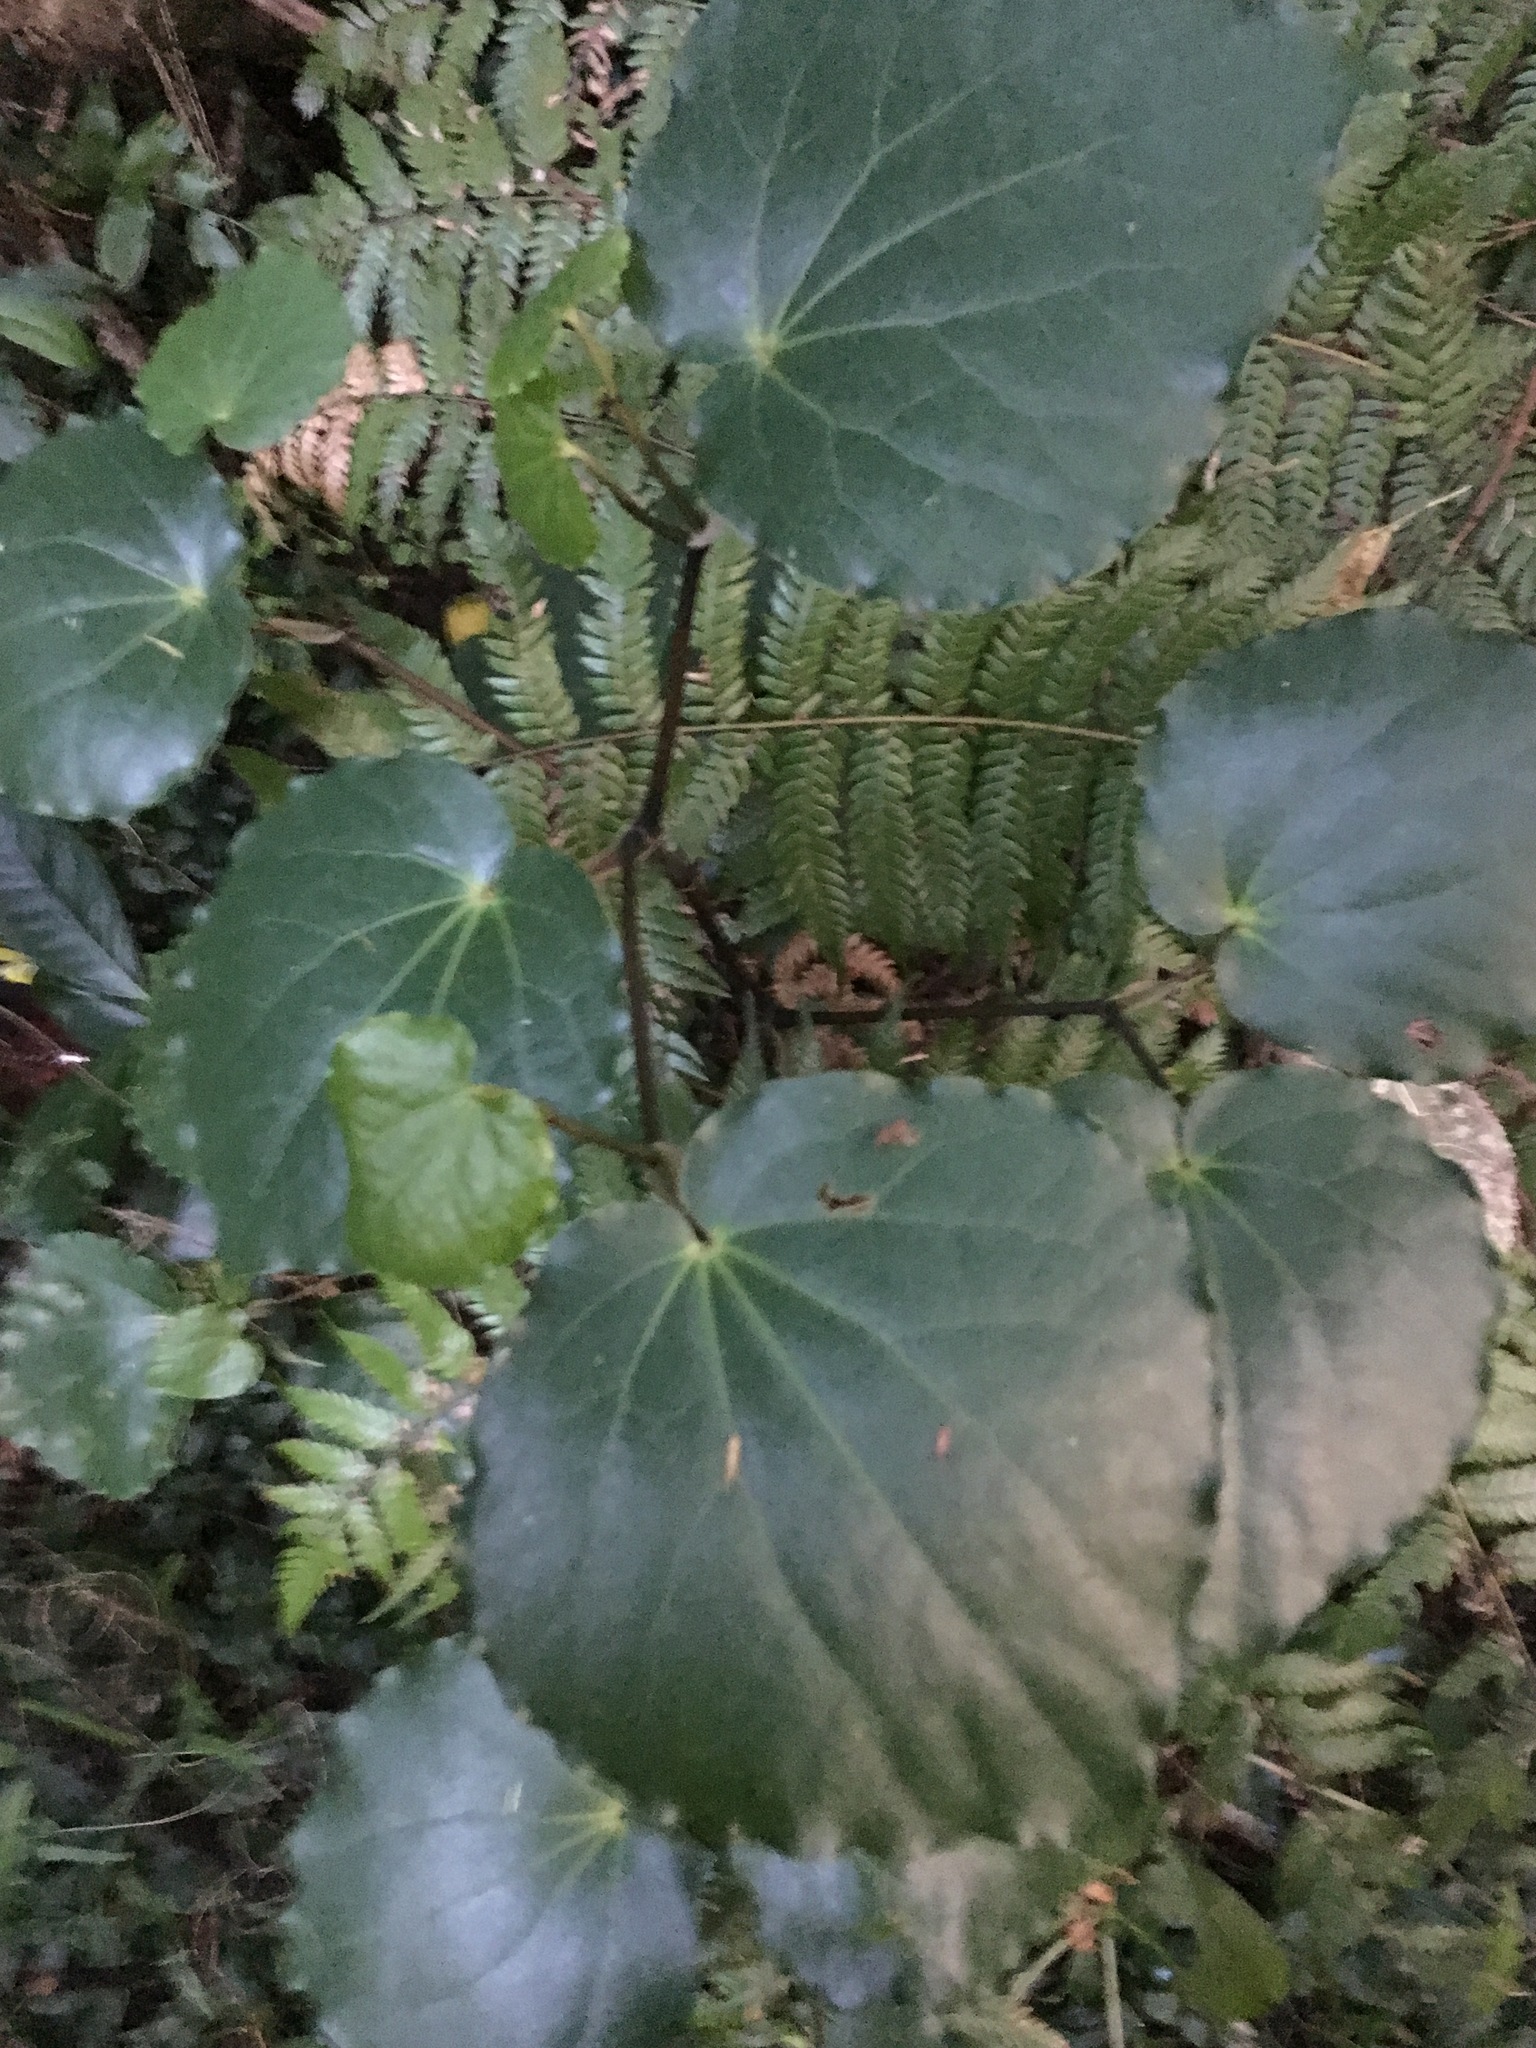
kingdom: Plantae
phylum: Tracheophyta
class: Magnoliopsida
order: Piperales
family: Piperaceae
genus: Macropiper
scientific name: Macropiper excelsum
